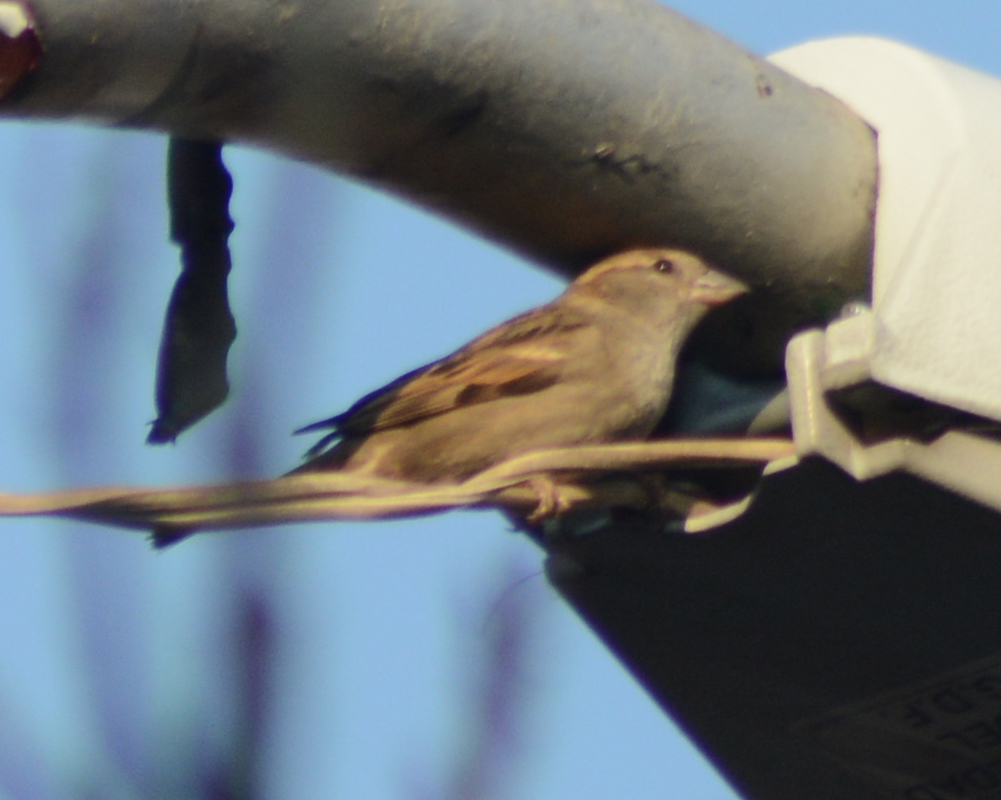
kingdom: Animalia
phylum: Chordata
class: Aves
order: Passeriformes
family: Passeridae
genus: Passer
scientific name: Passer domesticus
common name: House sparrow
